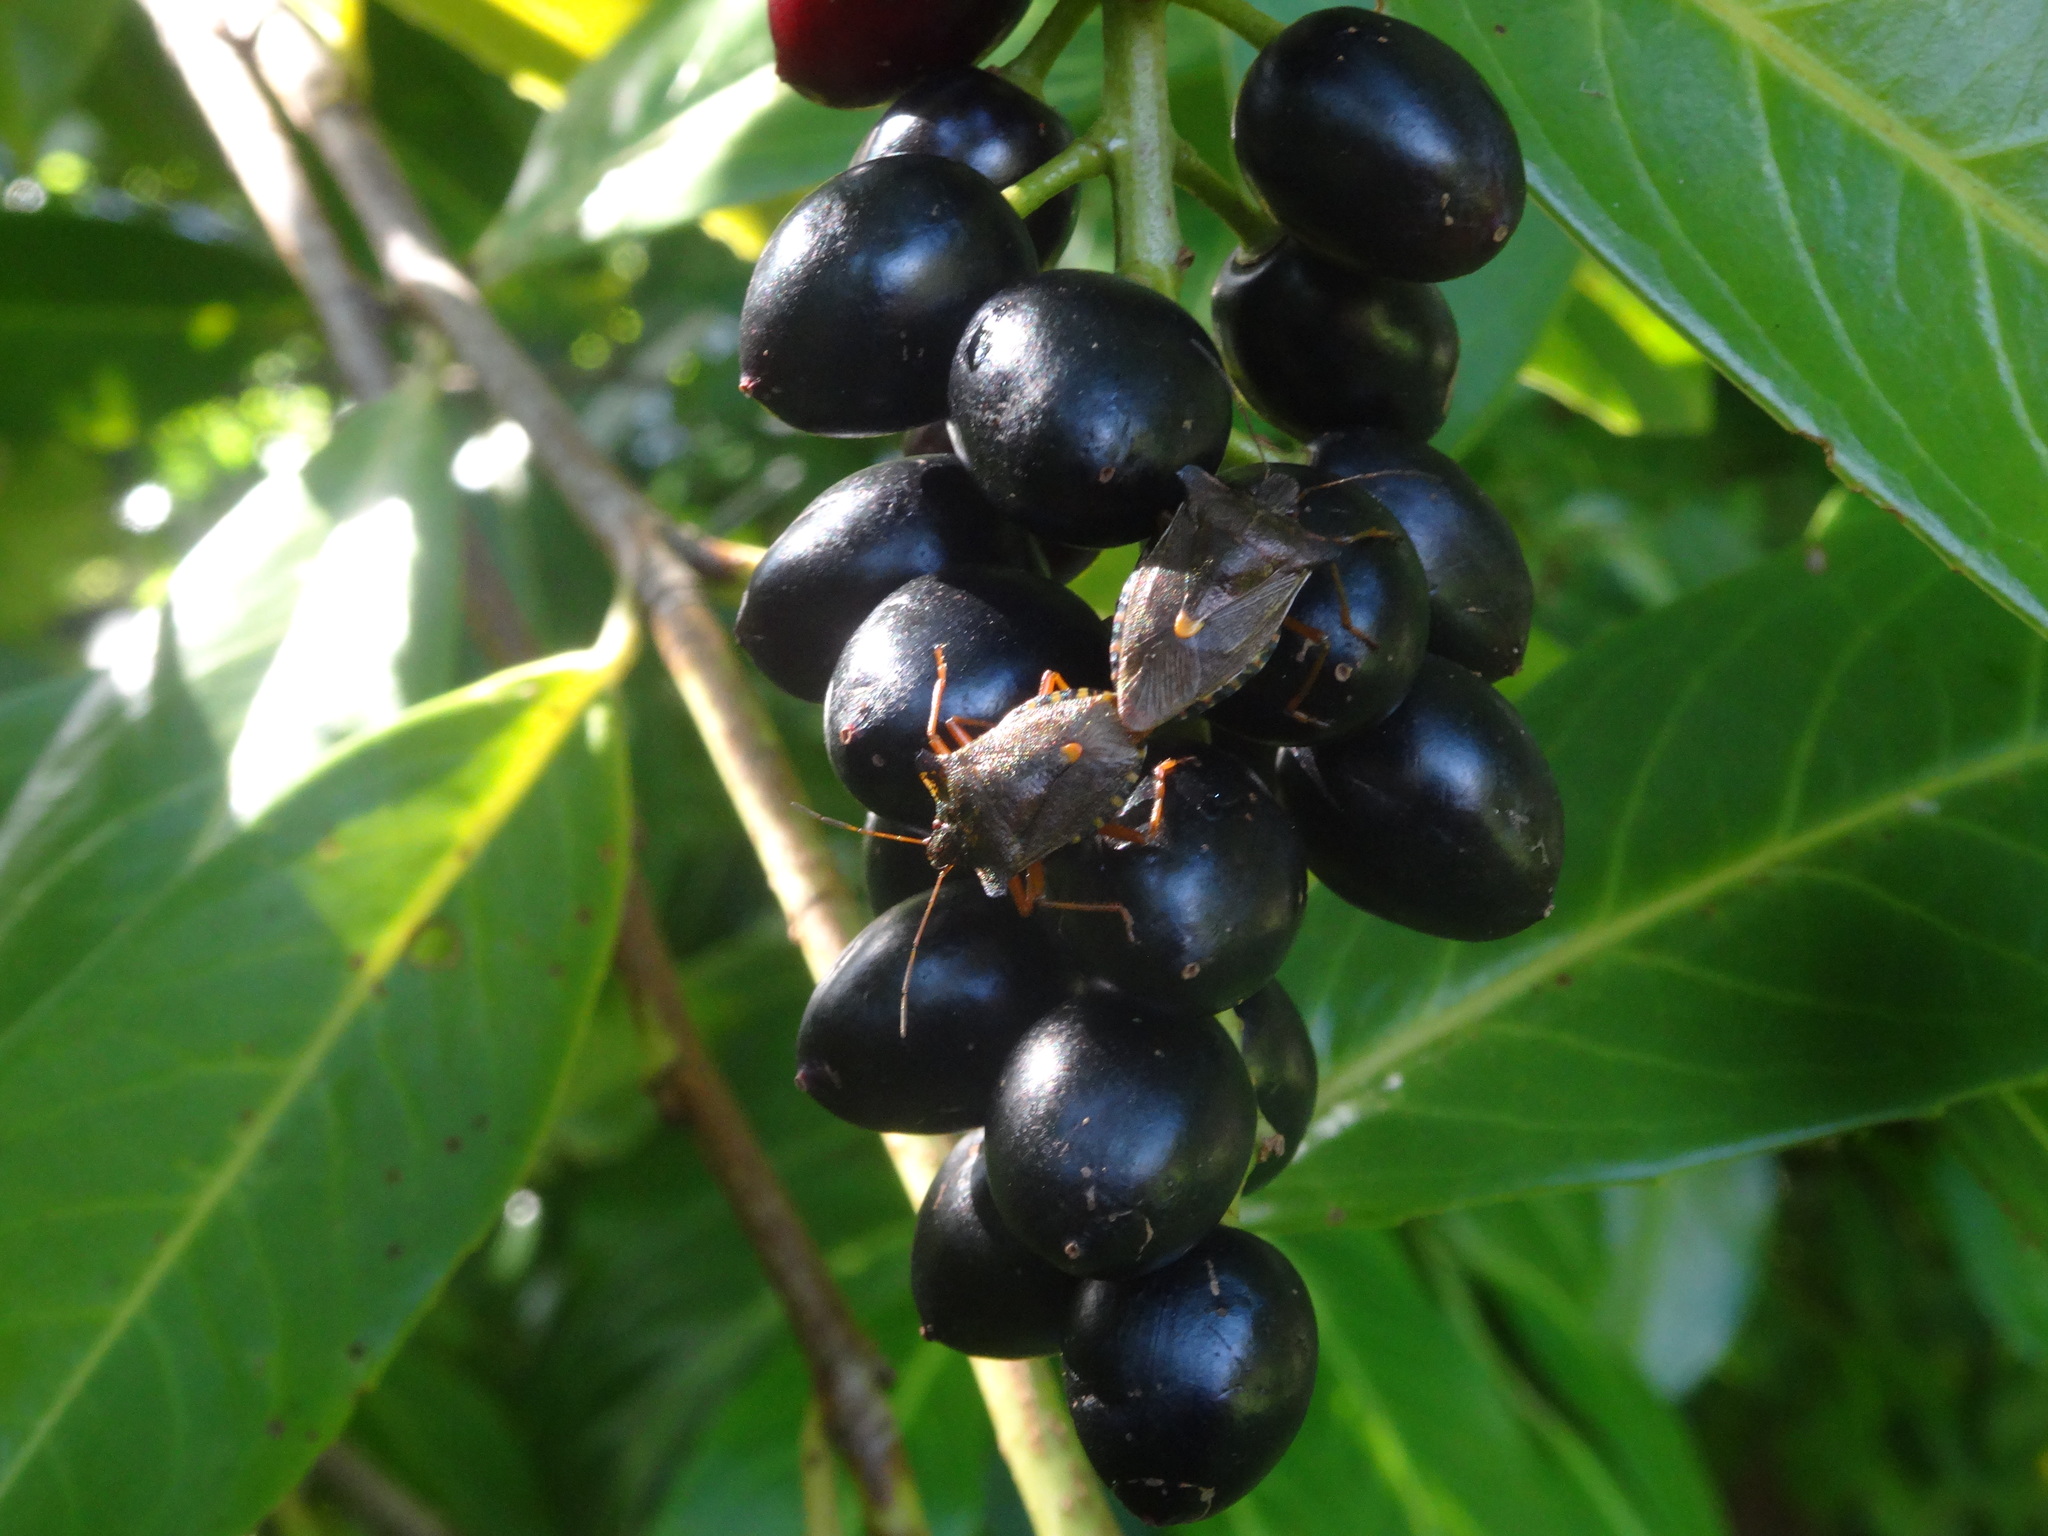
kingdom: Animalia
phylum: Arthropoda
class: Insecta
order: Hemiptera
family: Pentatomidae
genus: Pentatoma
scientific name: Pentatoma rufipes
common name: Forest bug
